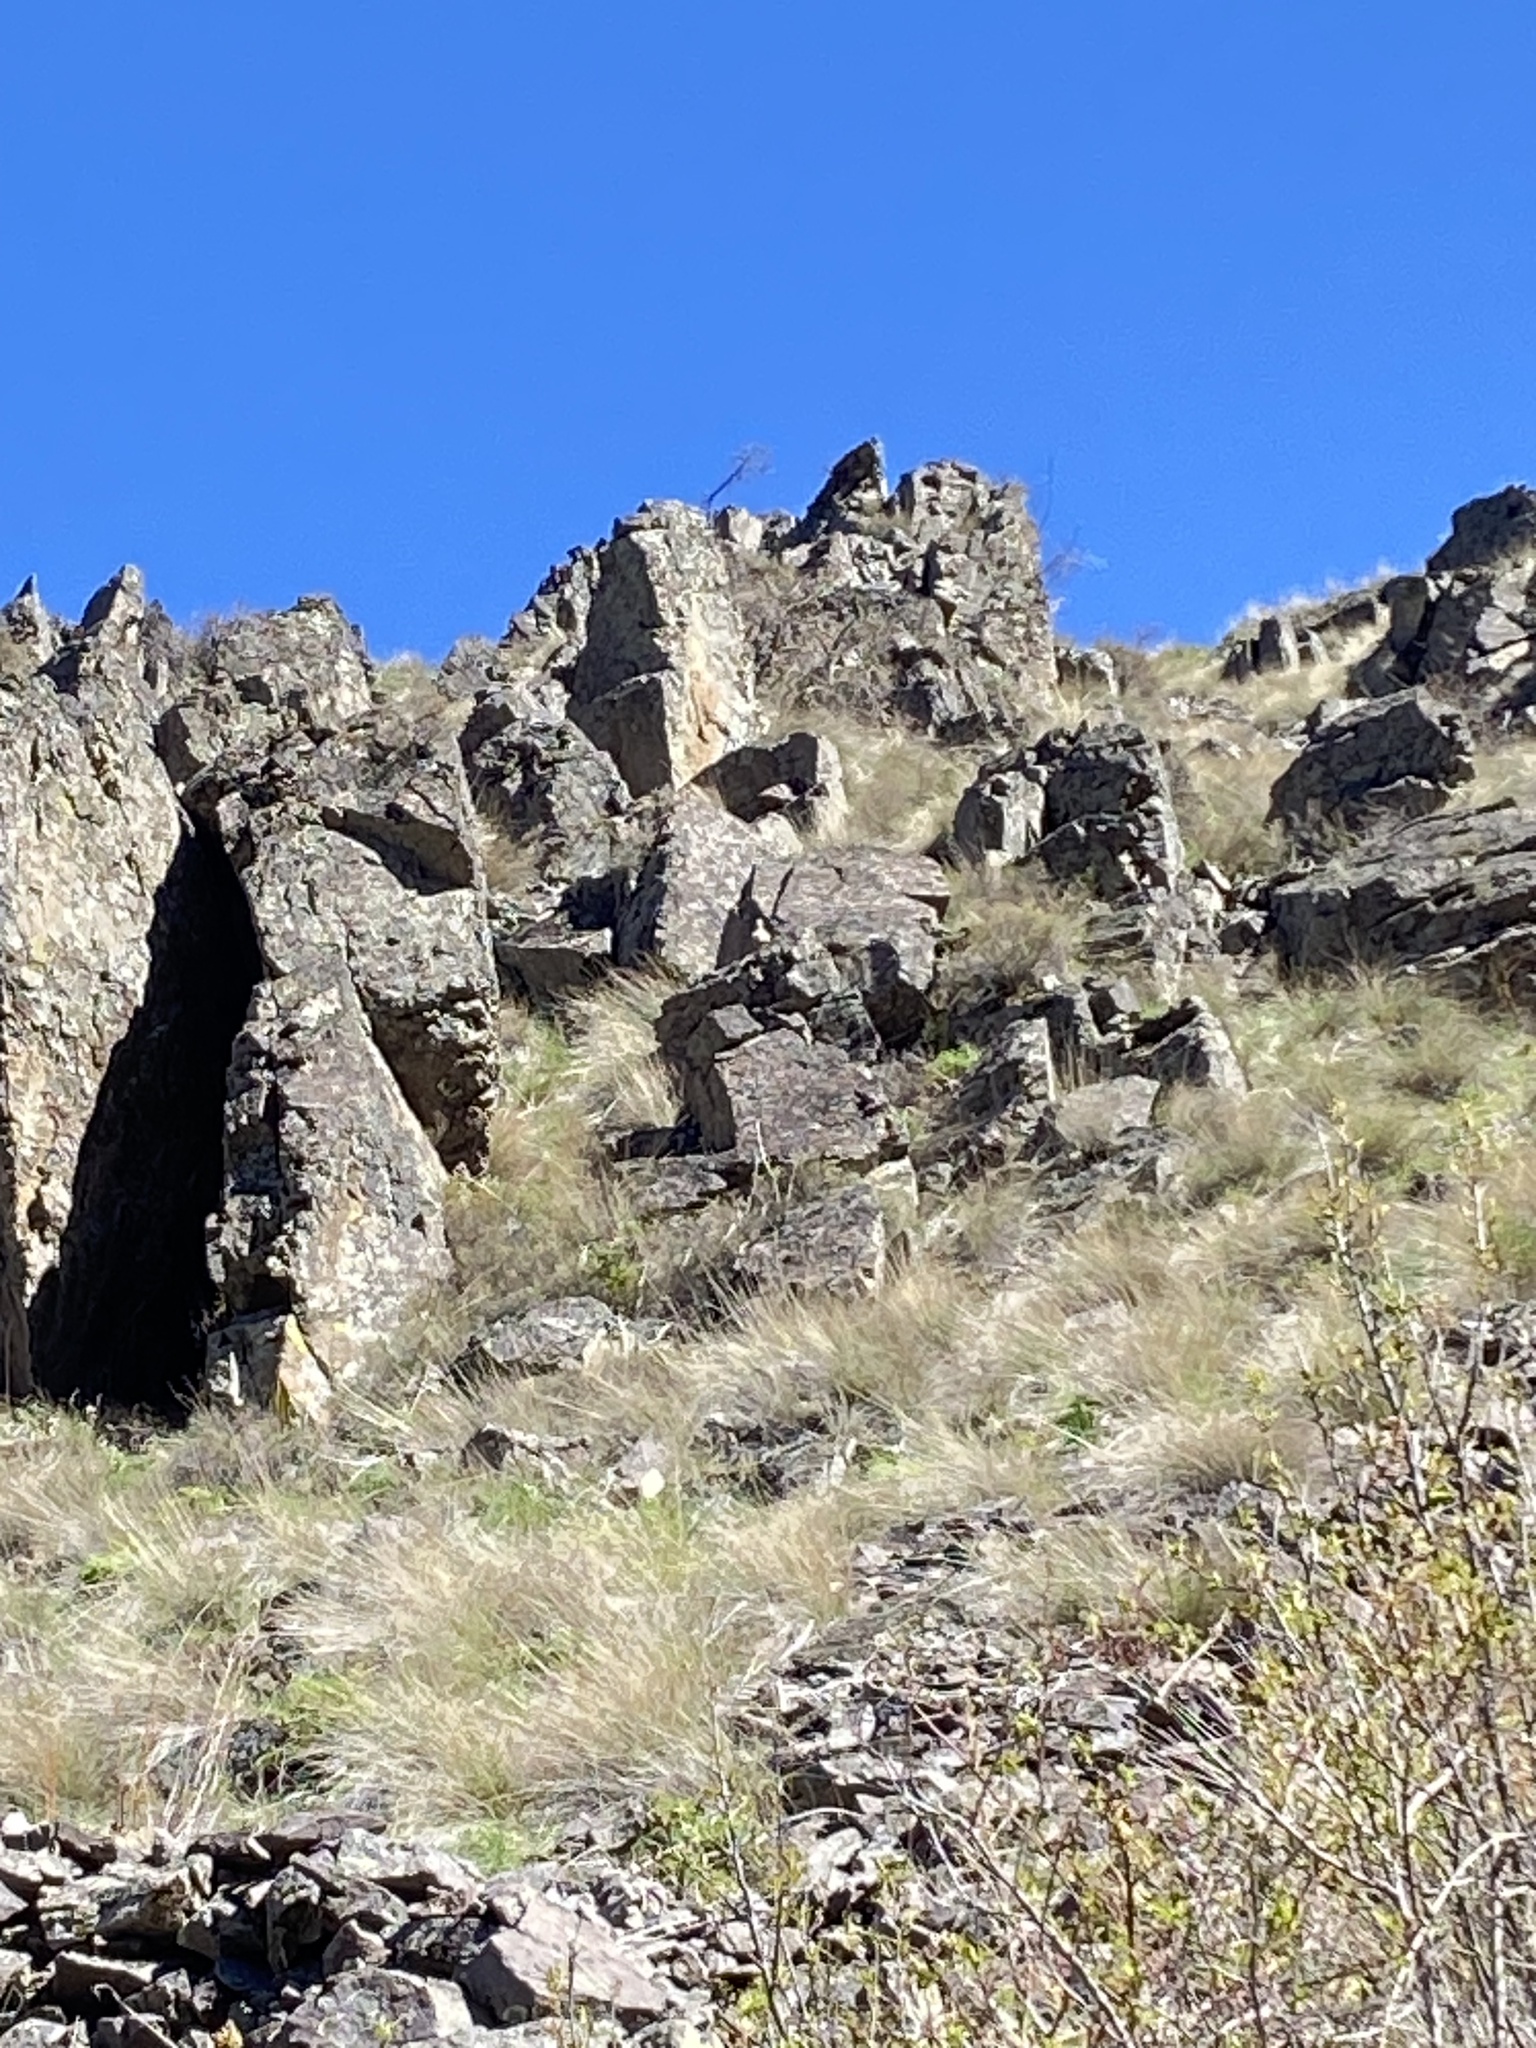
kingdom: Animalia
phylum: Chordata
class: Aves
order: Galliformes
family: Phasianidae
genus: Alectoris
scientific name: Alectoris chukar
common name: Chukar
